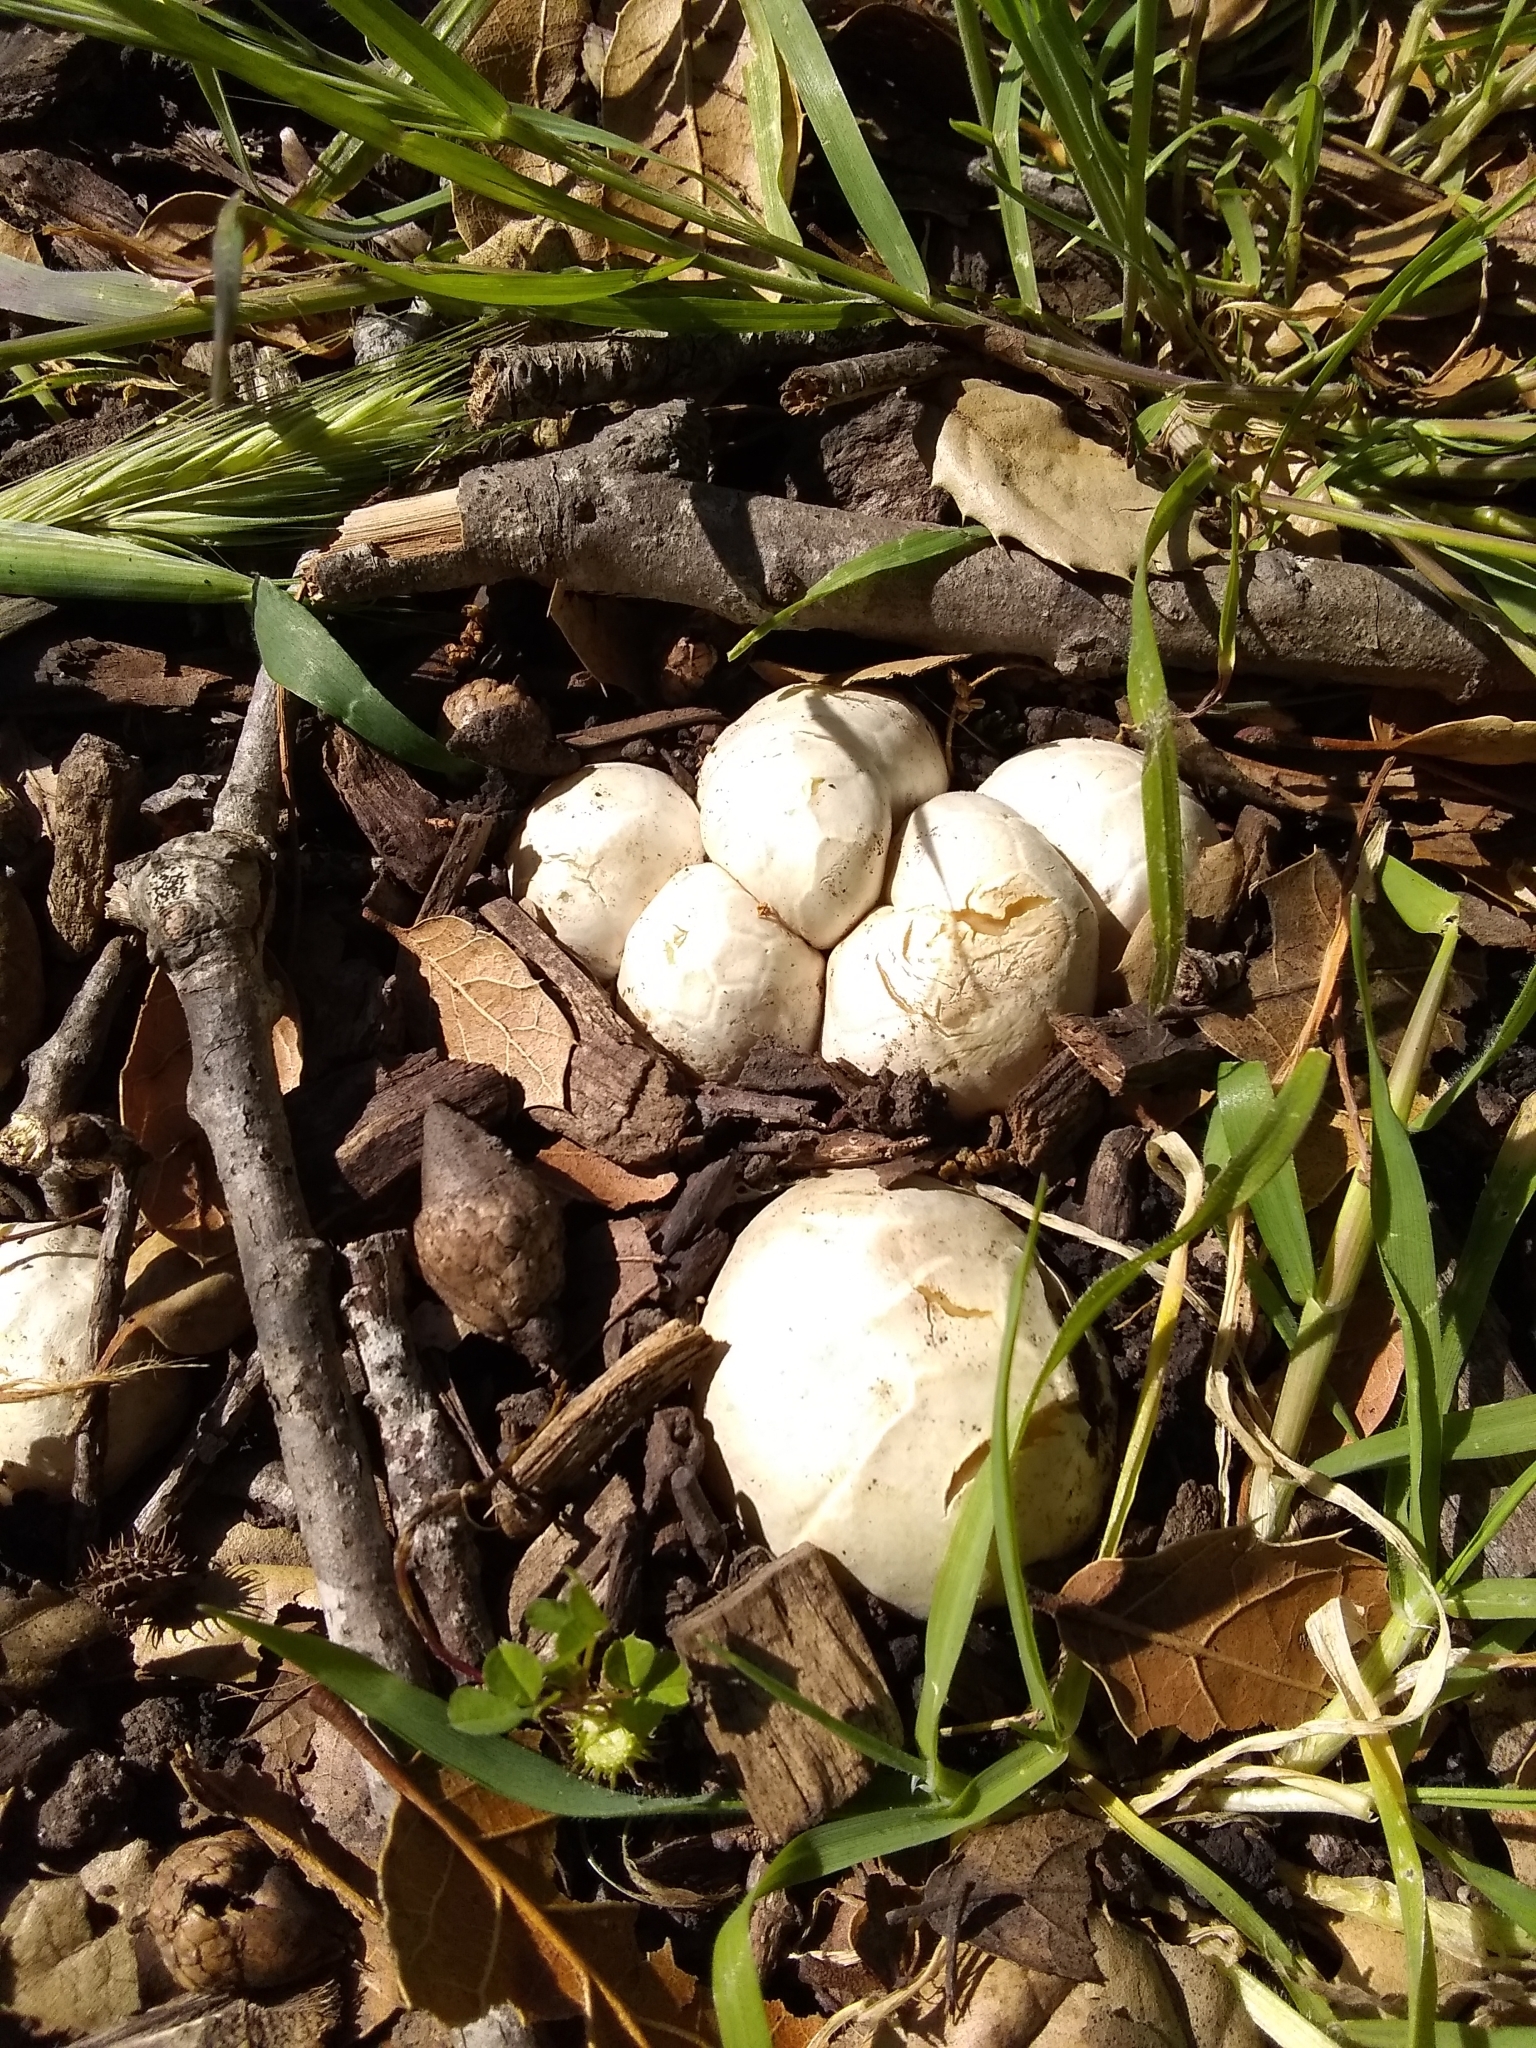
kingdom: Fungi
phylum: Basidiomycota
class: Agaricomycetes
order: Phallales
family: Phallaceae
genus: Clathrus
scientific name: Clathrus ruber
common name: Red cage
